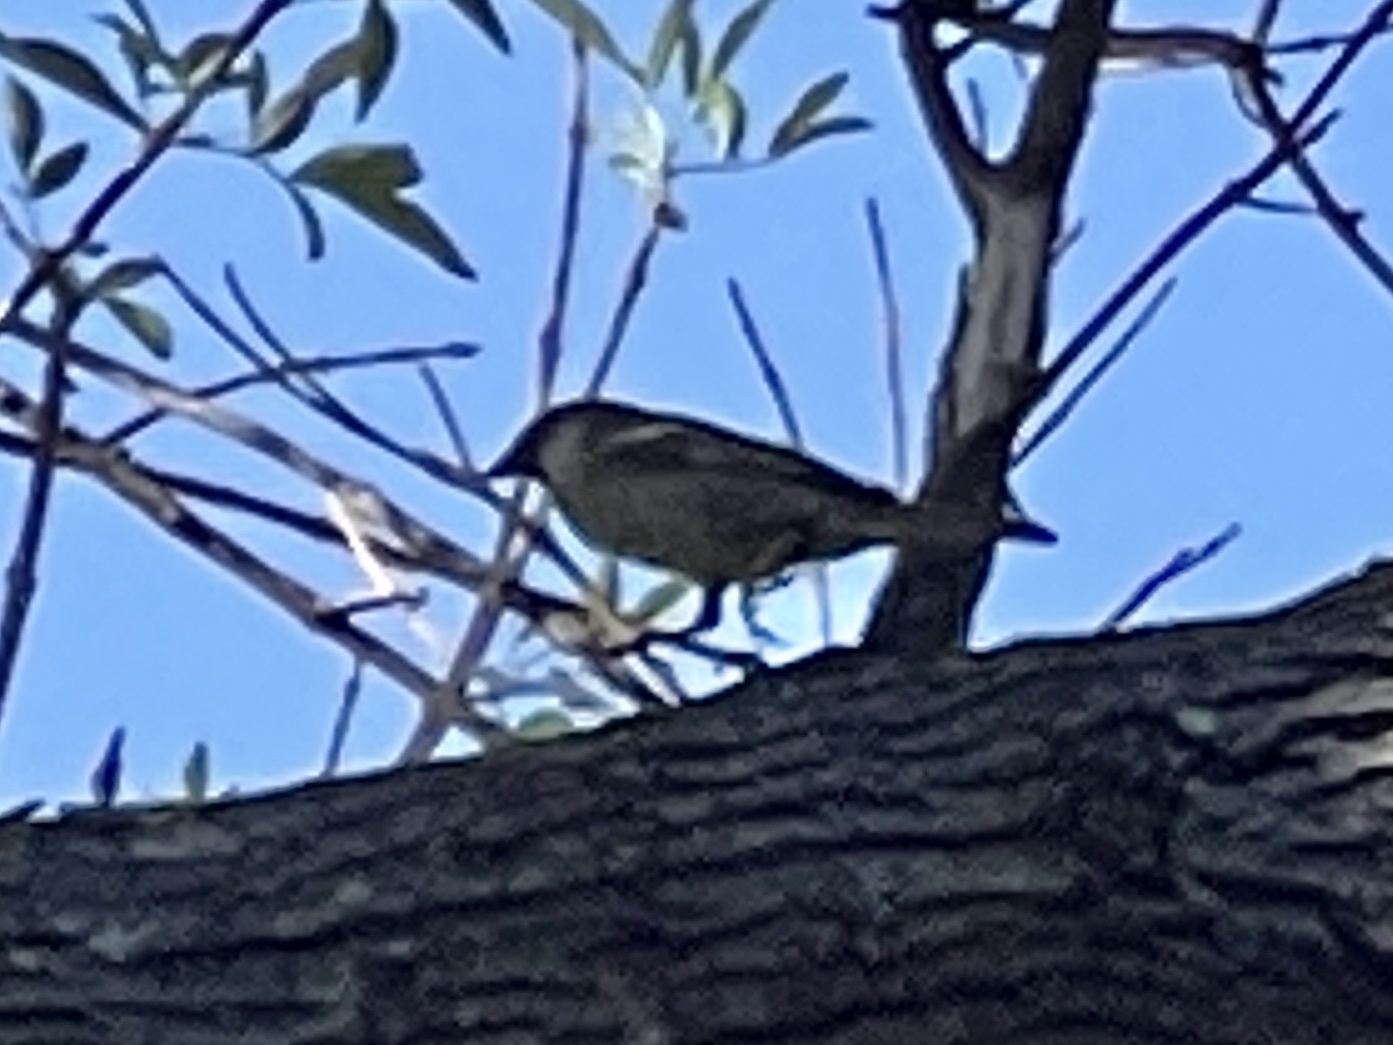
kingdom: Animalia
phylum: Chordata
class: Aves
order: Passeriformes
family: Passeridae
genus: Passer
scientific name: Passer domesticus
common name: House sparrow
